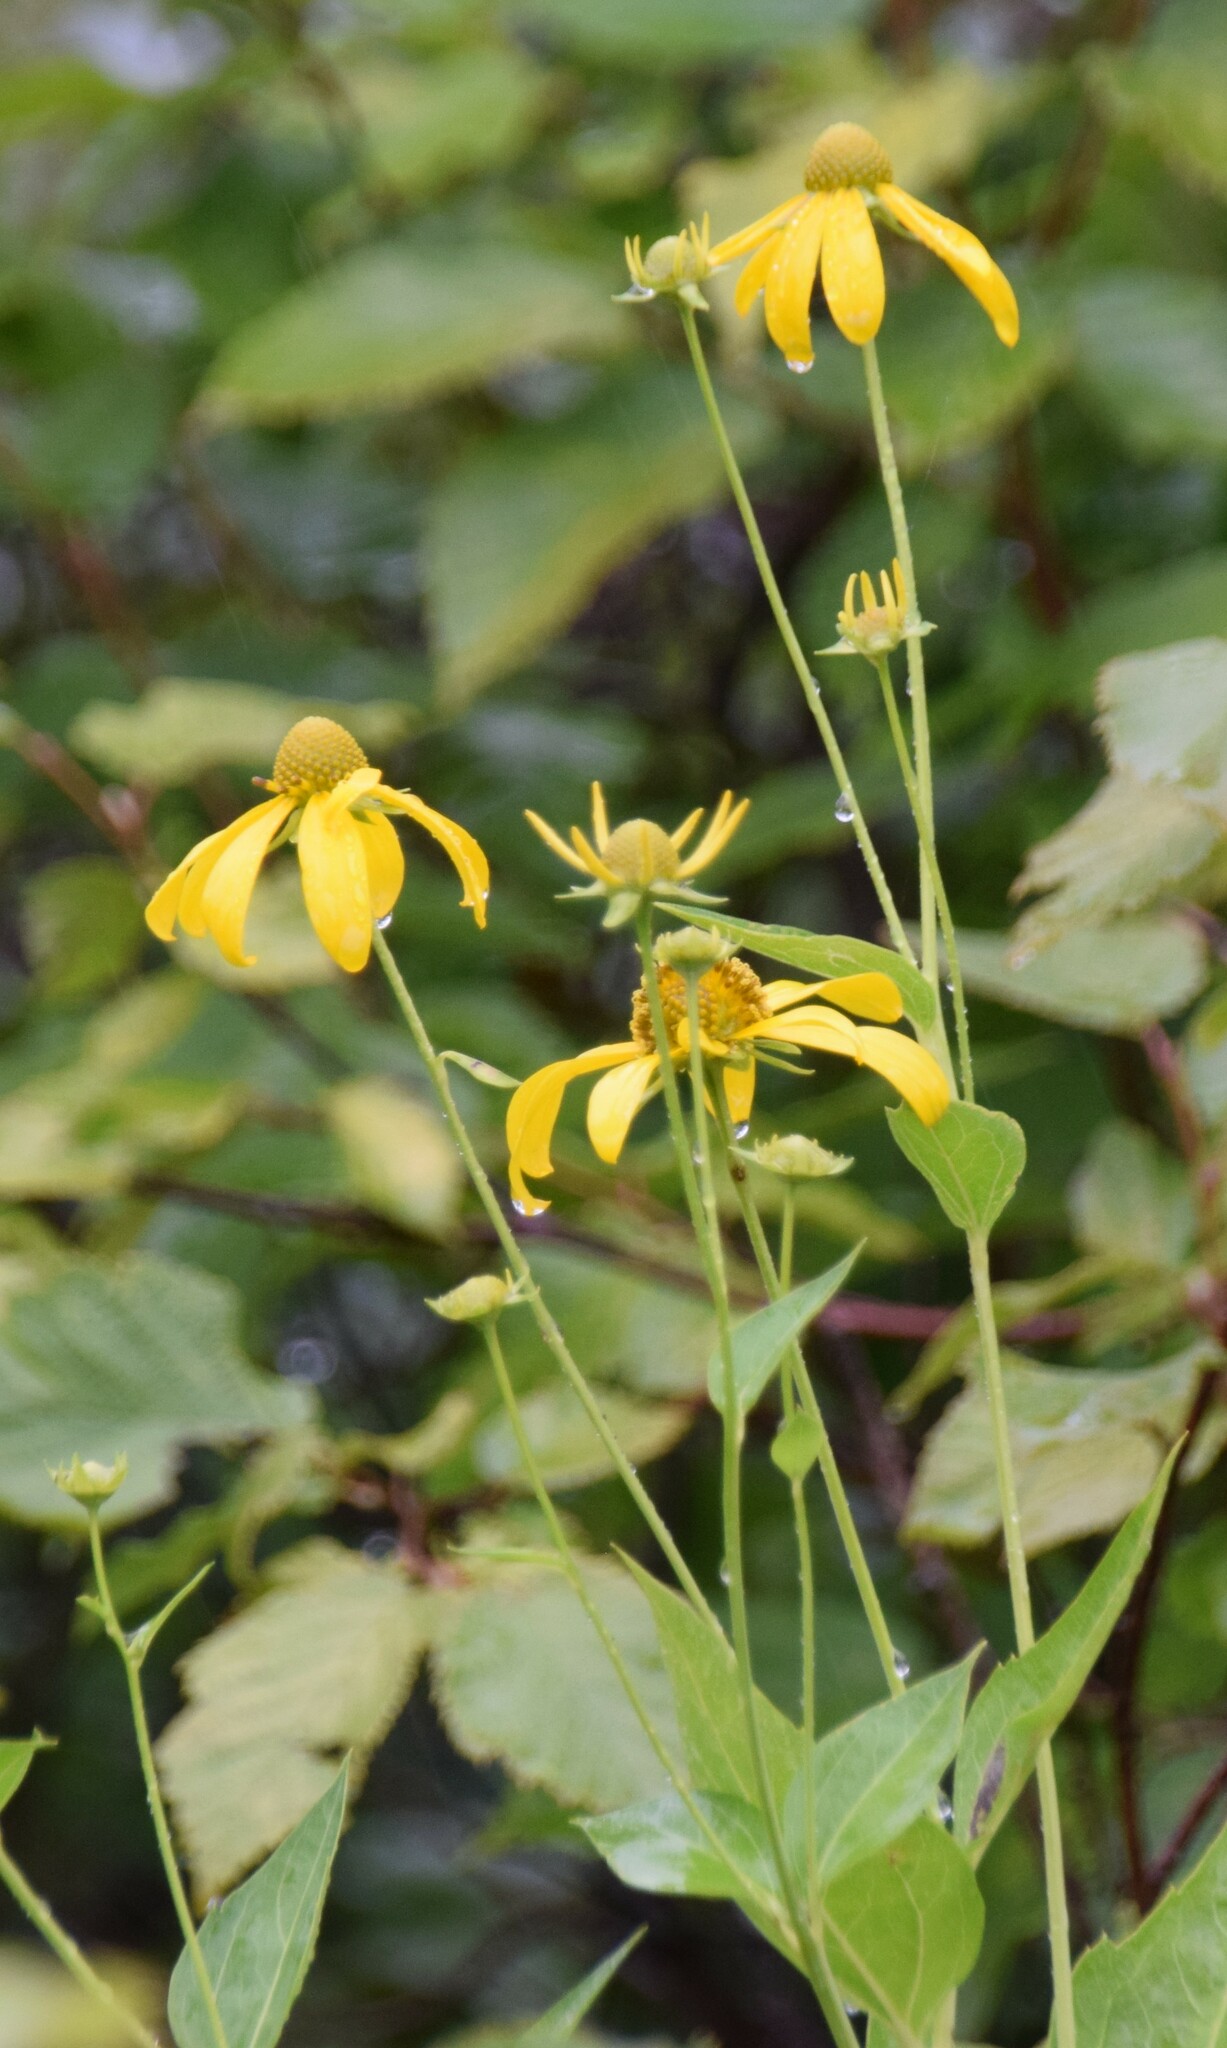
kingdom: Plantae
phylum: Tracheophyta
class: Magnoliopsida
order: Asterales
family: Asteraceae
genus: Rudbeckia
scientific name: Rudbeckia laciniata
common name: Coneflower
